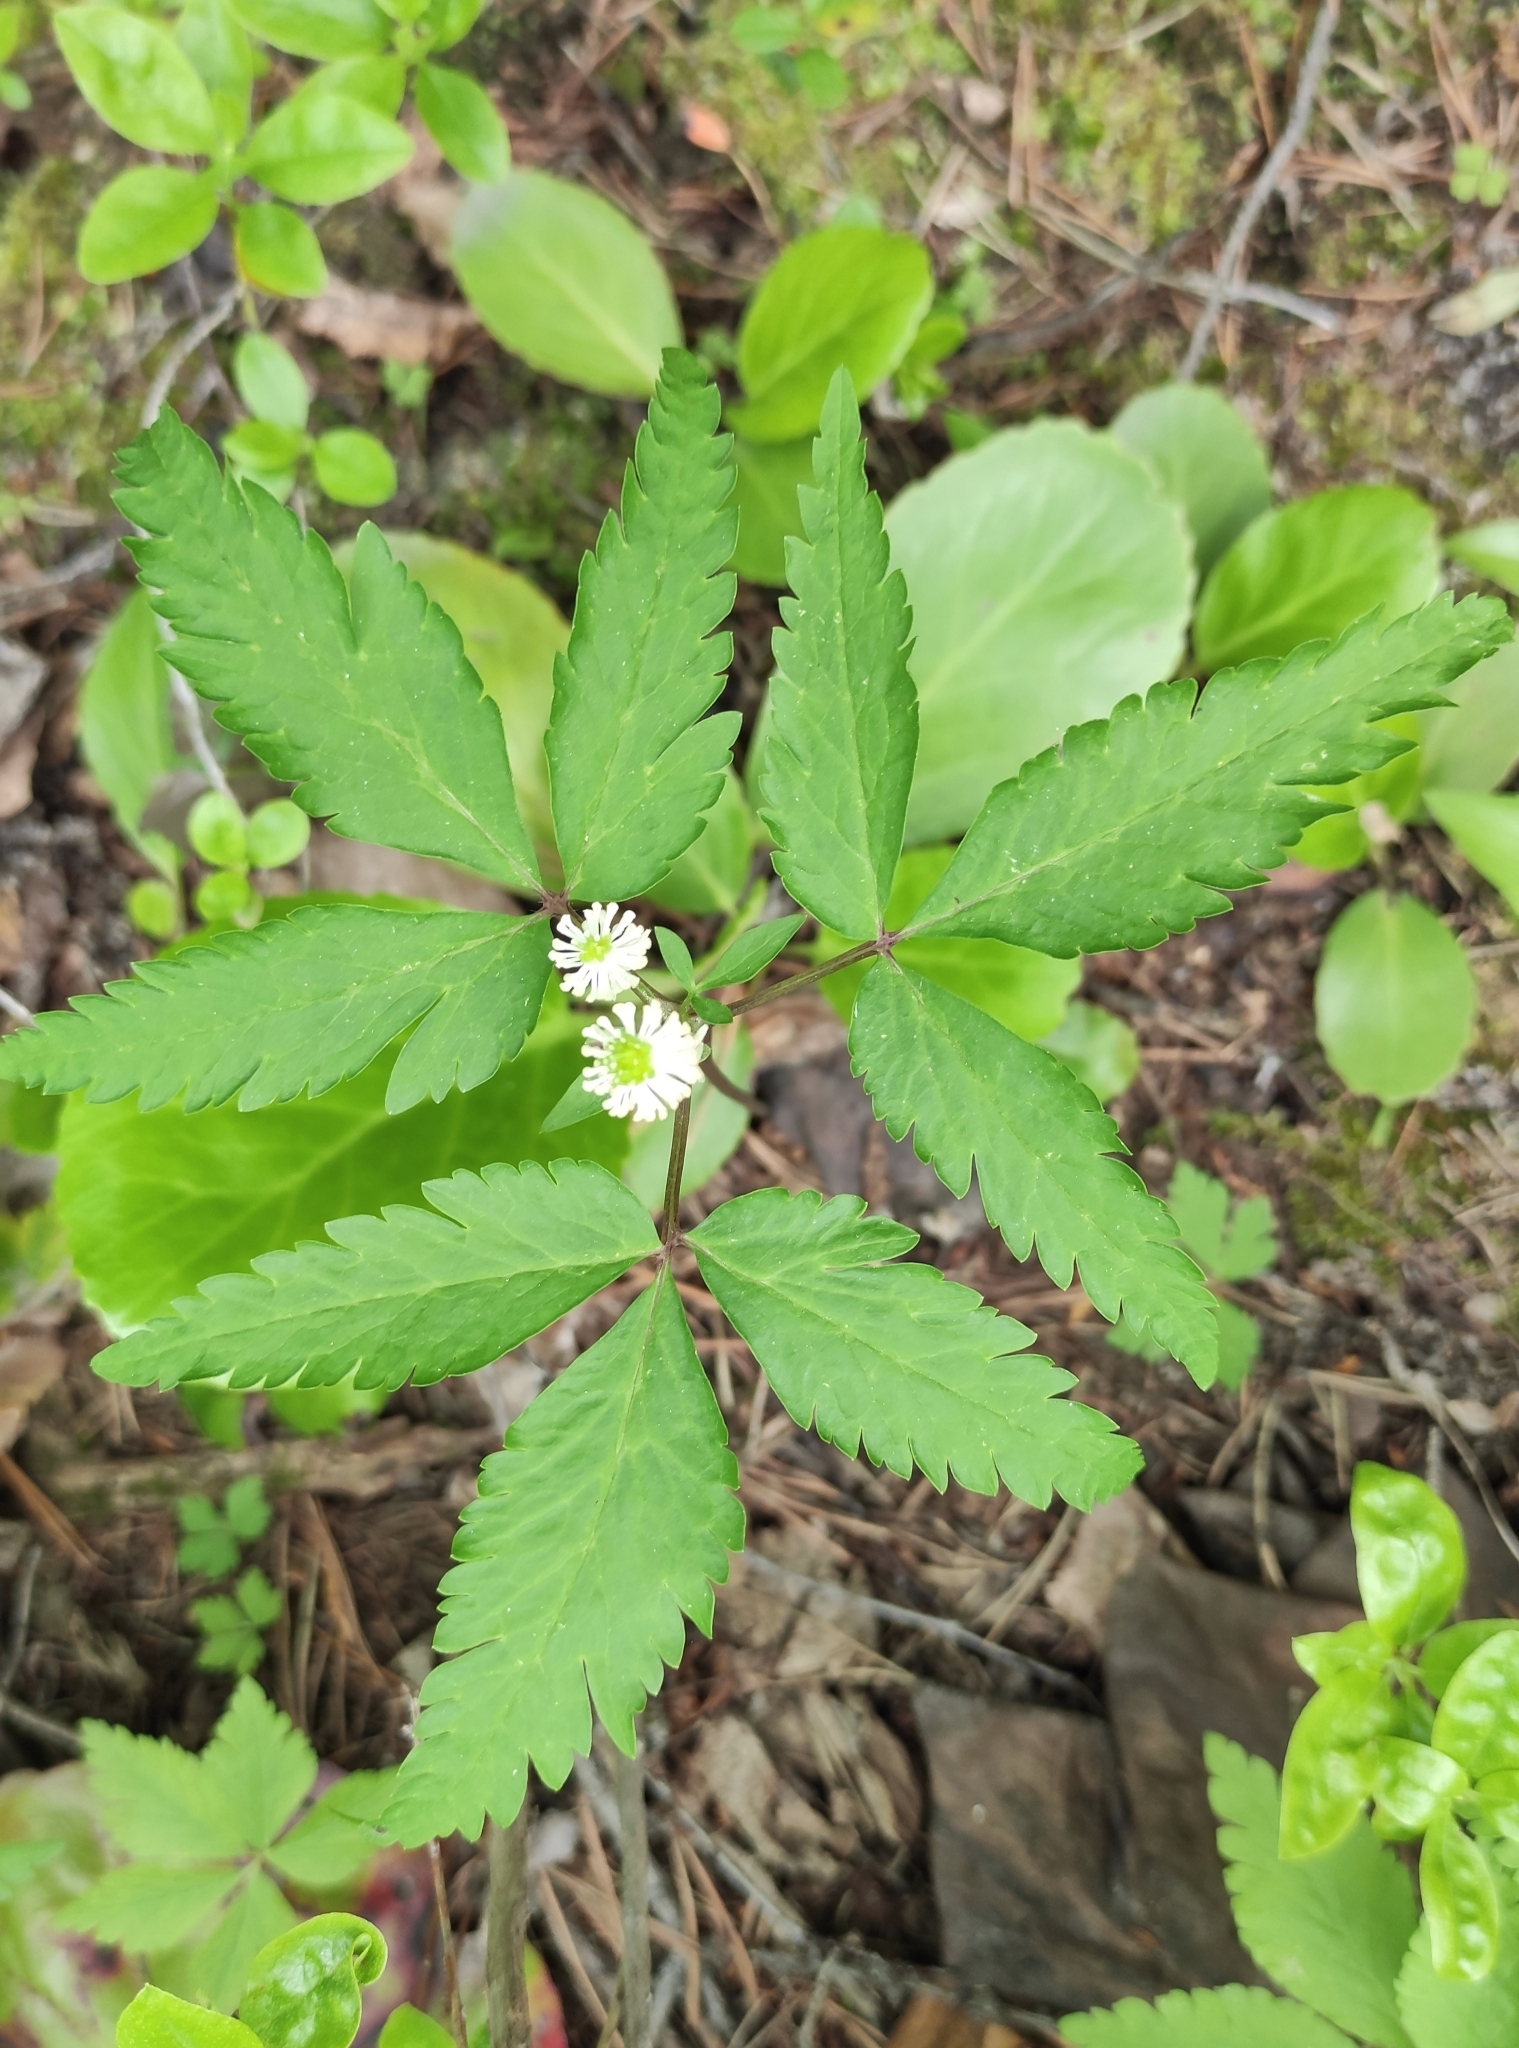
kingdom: Plantae
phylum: Tracheophyta
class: Magnoliopsida
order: Ranunculales
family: Ranunculaceae
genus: Anemone
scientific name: Anemone reflexa
